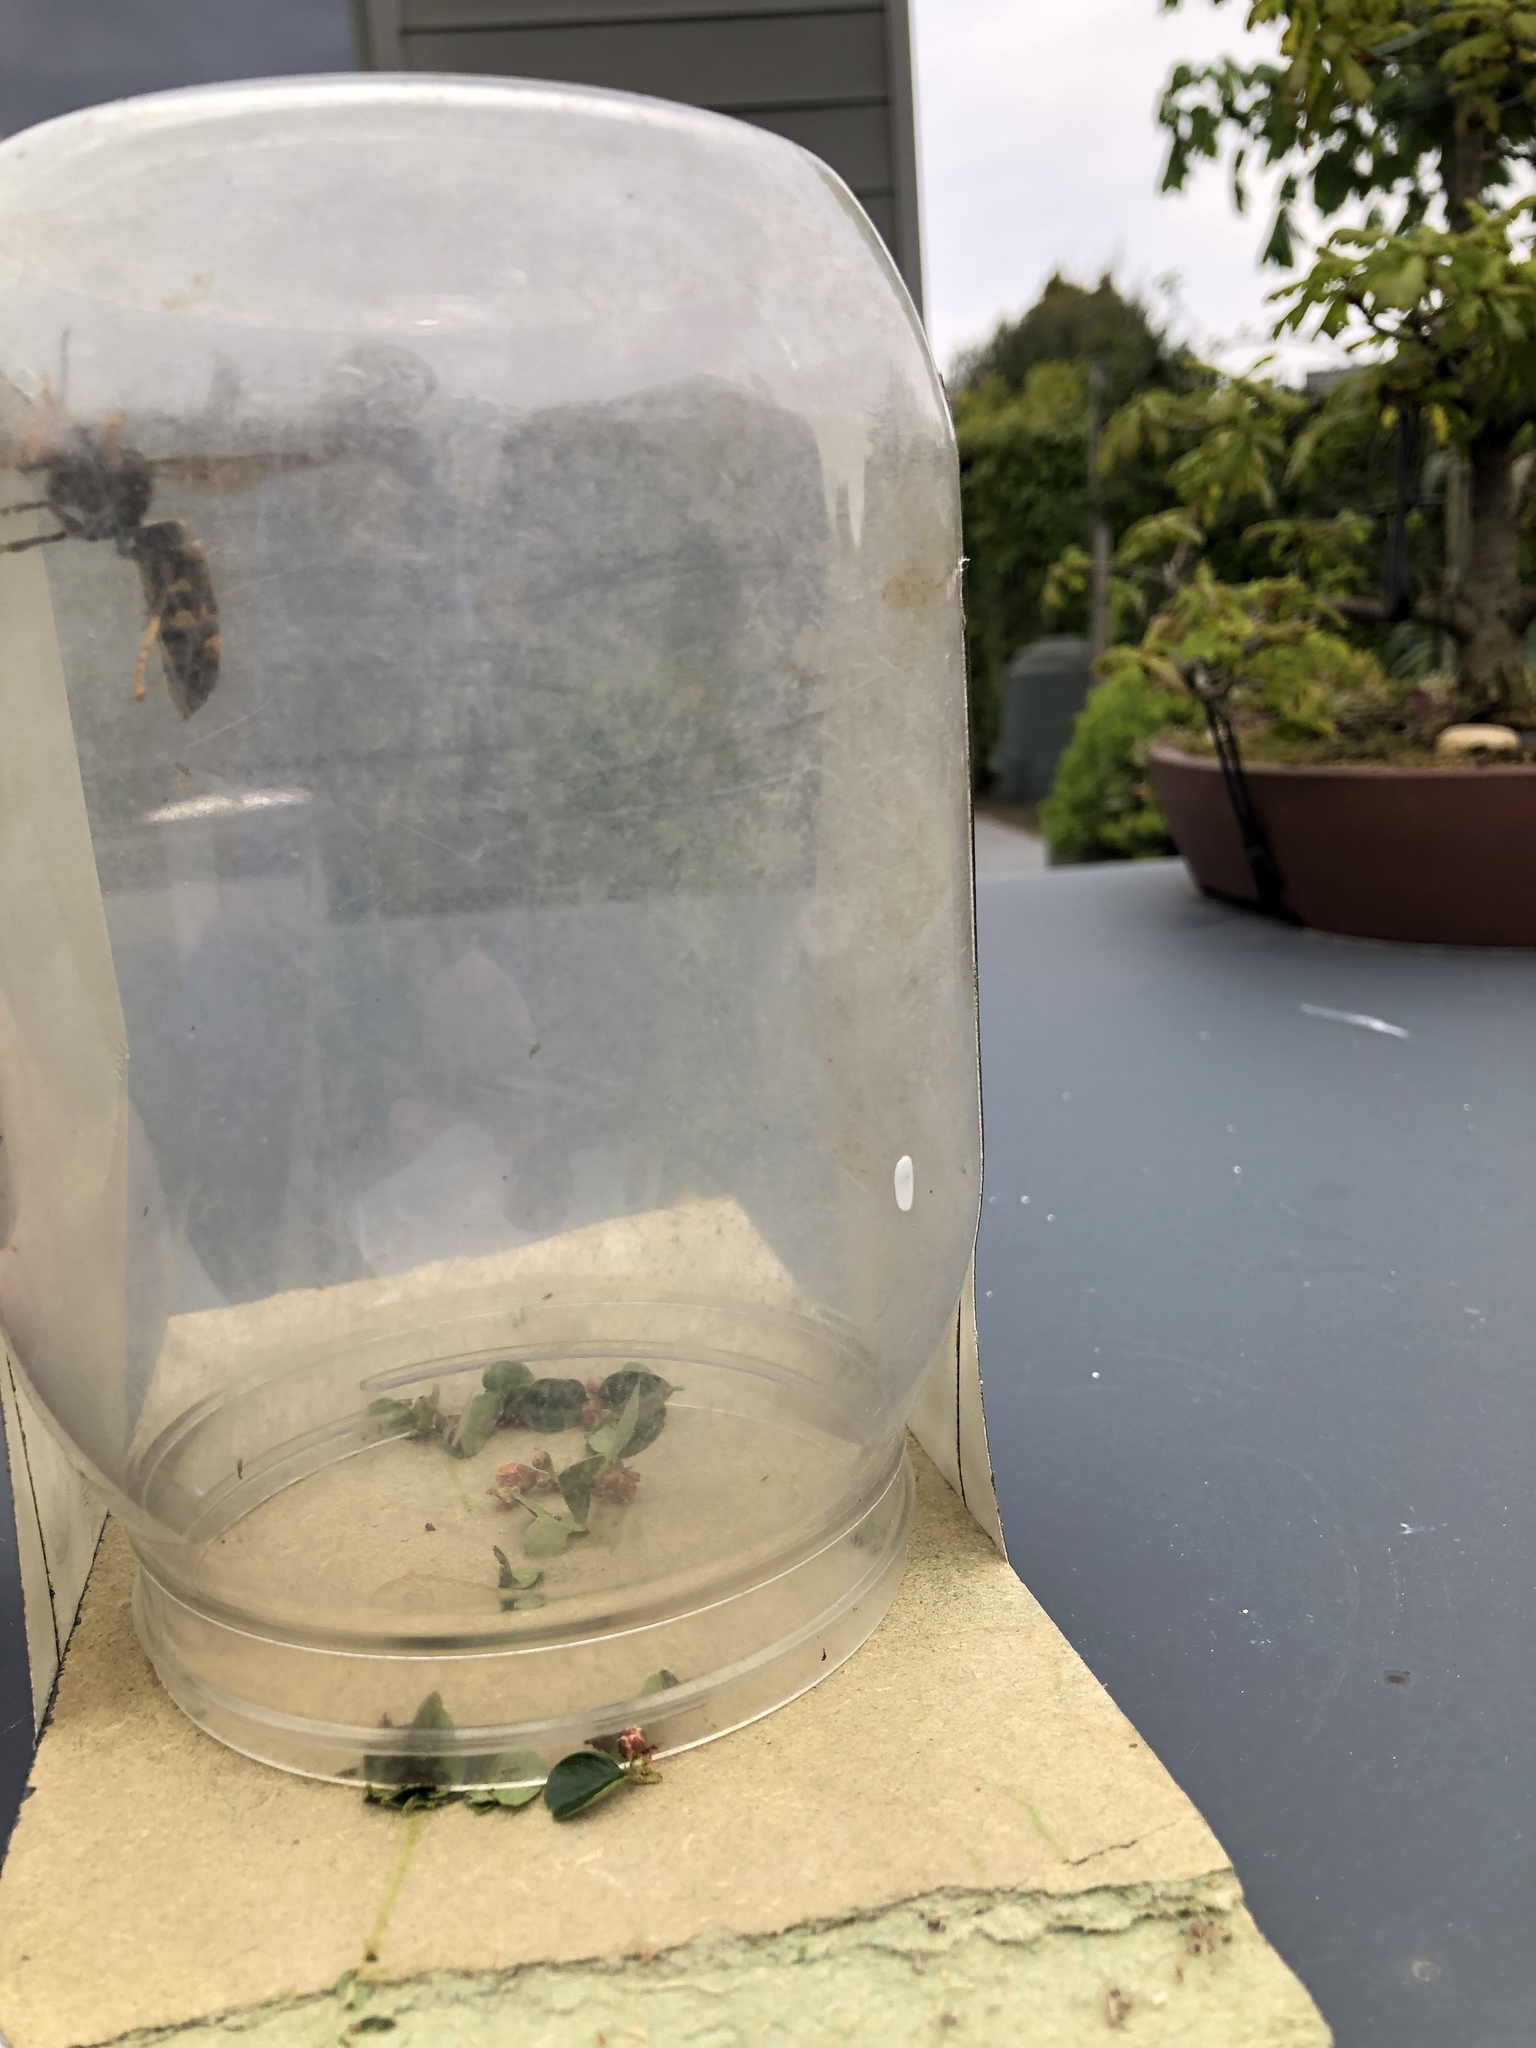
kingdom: Animalia
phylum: Arthropoda
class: Insecta
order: Hymenoptera
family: Vespidae
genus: Vespa
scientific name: Vespa velutina
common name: Asian hornet
